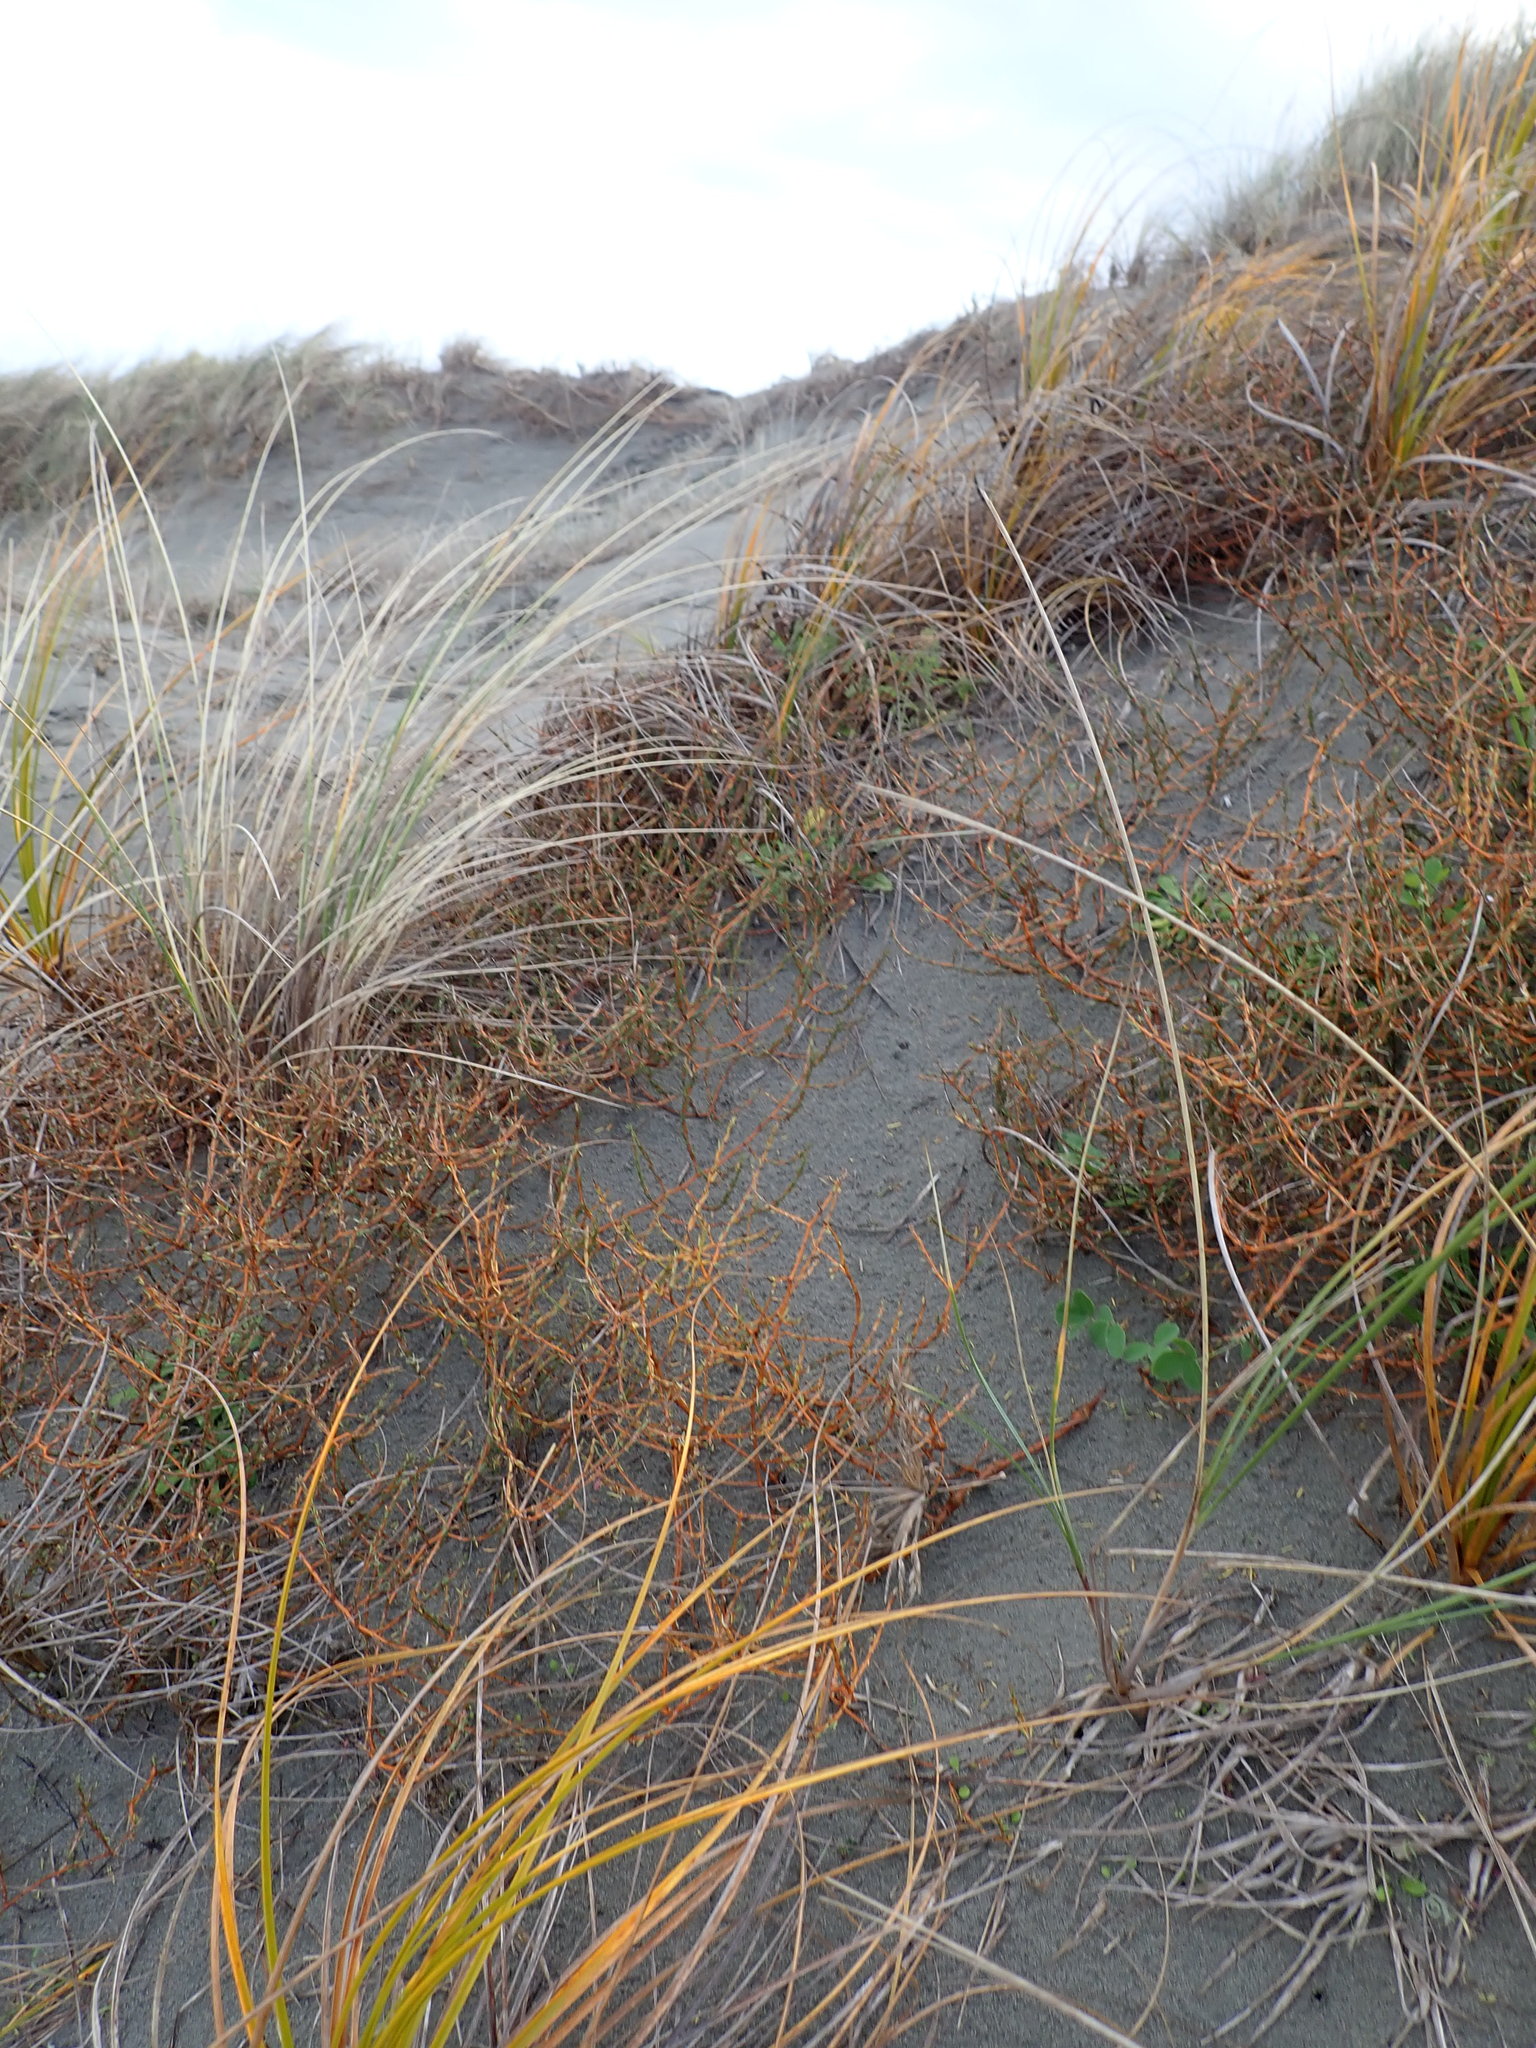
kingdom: Plantae
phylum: Tracheophyta
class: Magnoliopsida
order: Gentianales
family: Rubiaceae
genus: Coprosma
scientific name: Coprosma acerosa
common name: Sand coprosma
